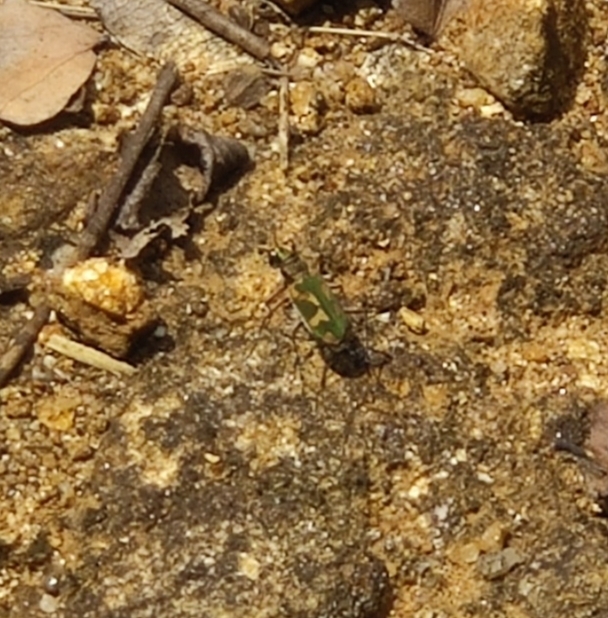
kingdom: Animalia
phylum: Arthropoda
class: Insecta
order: Coleoptera
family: Carabidae
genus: Cicindela
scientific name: Cicindela calligramma
